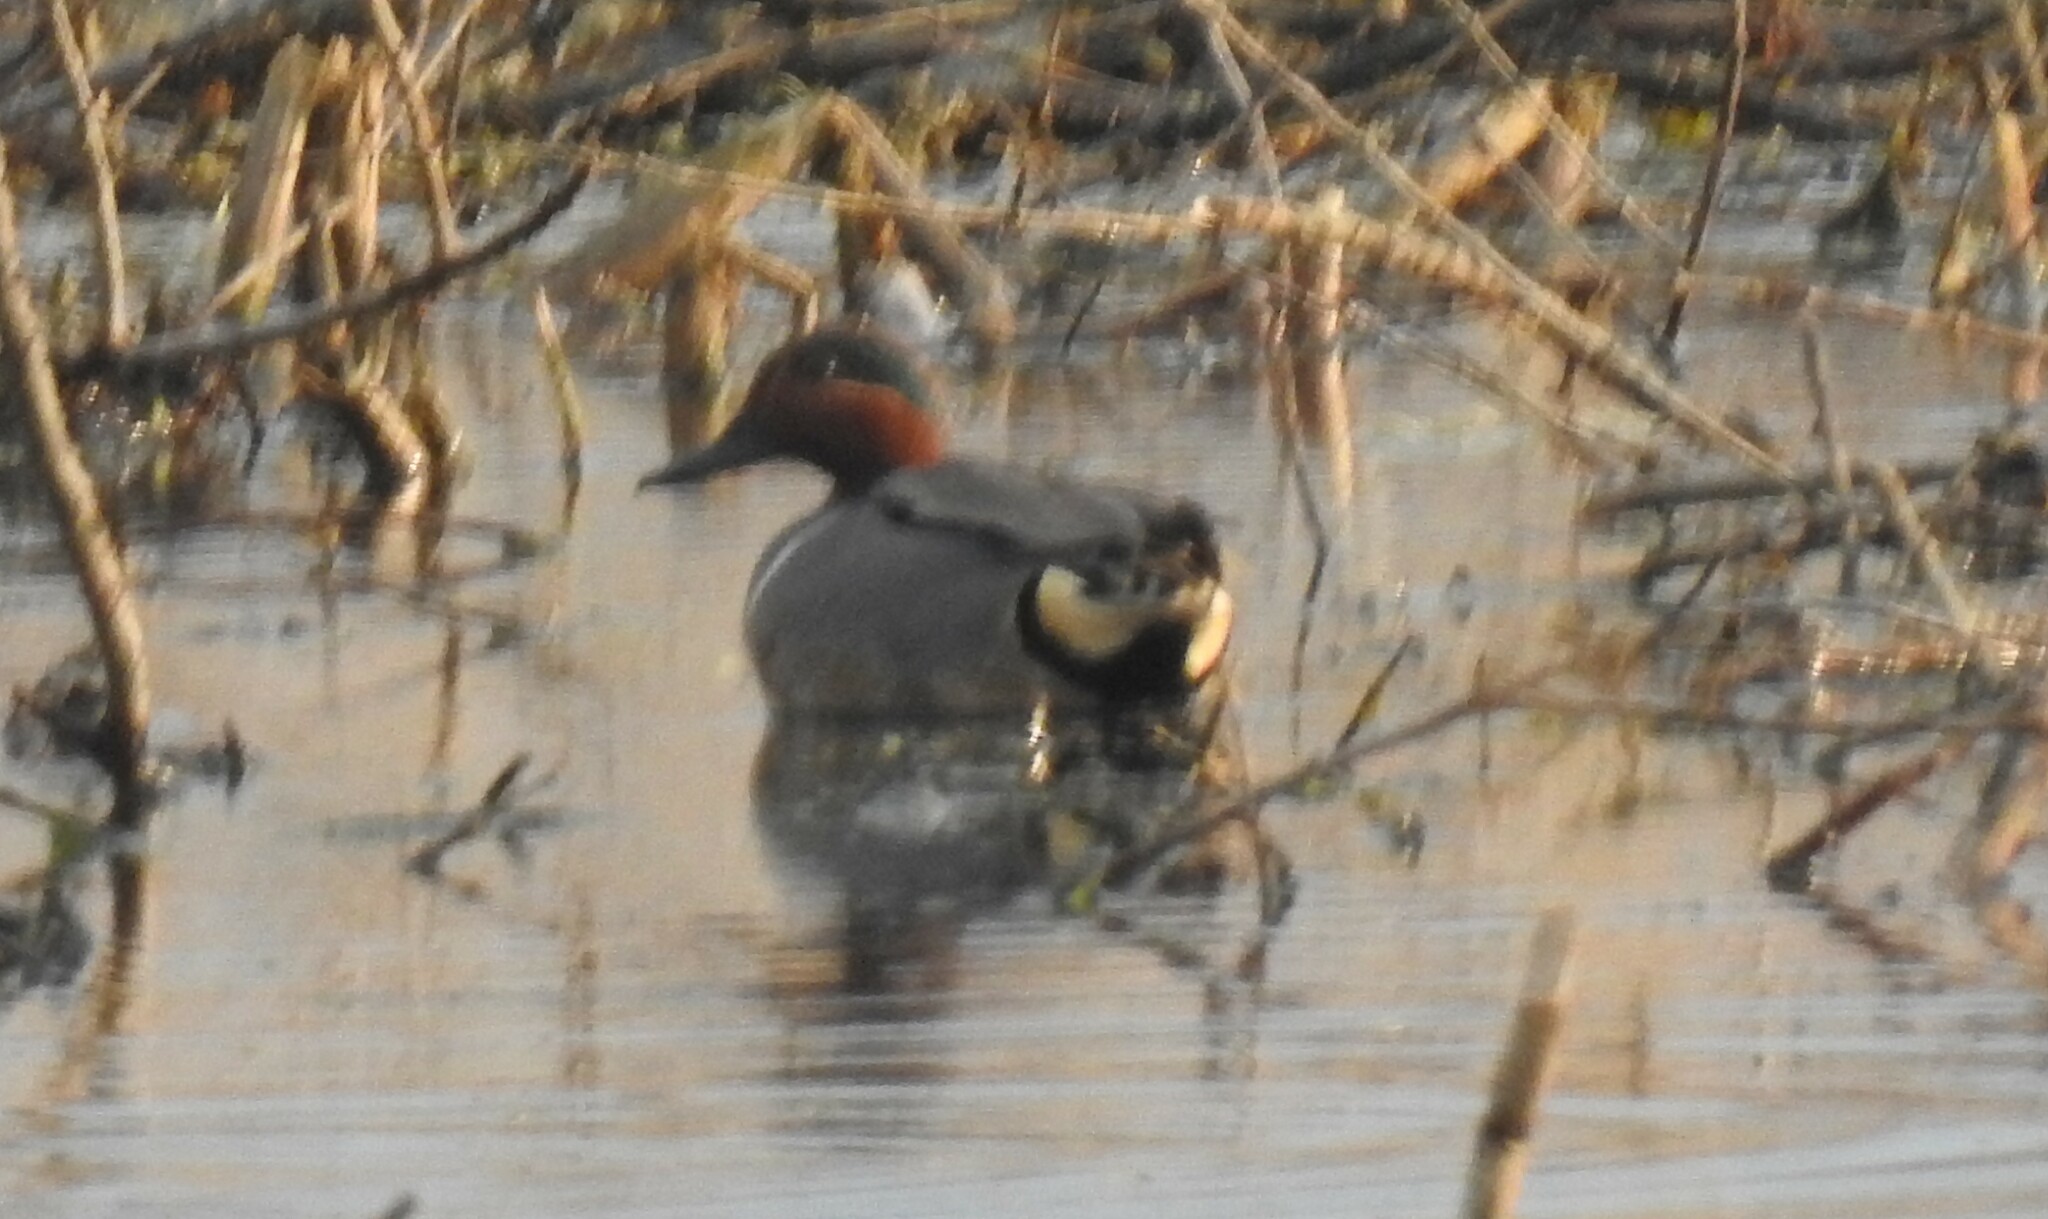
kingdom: Animalia
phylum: Chordata
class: Aves
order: Anseriformes
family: Anatidae
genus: Anas
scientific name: Anas crecca
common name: Eurasian teal
